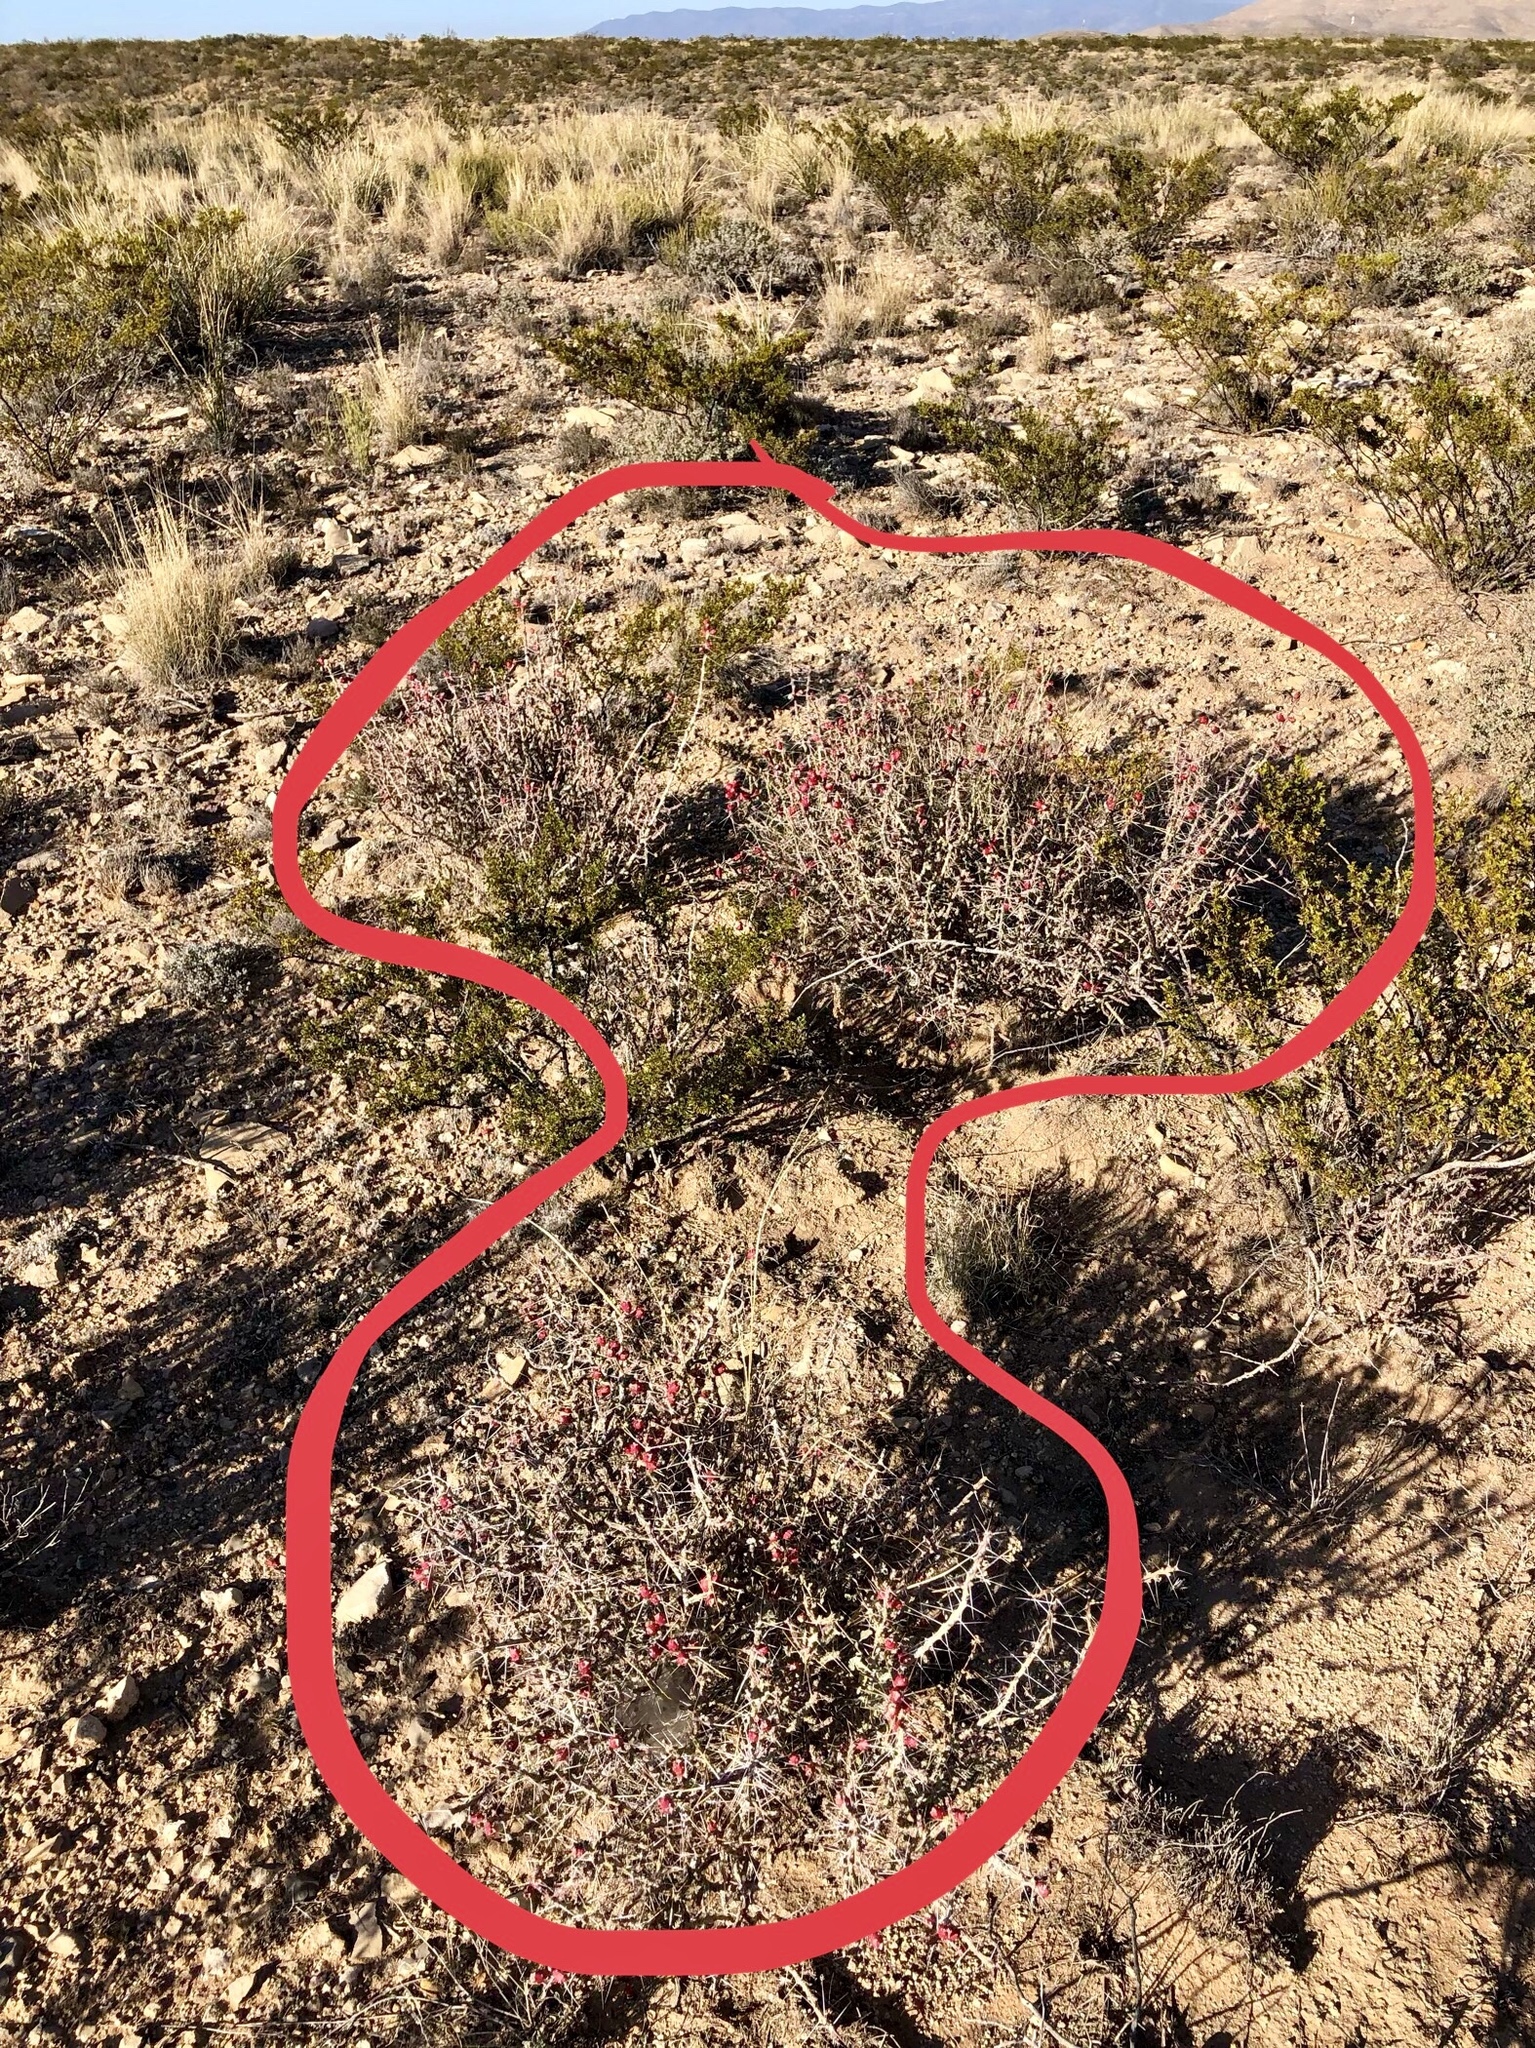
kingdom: Plantae
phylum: Tracheophyta
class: Magnoliopsida
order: Caryophyllales
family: Cactaceae
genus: Cylindropuntia
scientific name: Cylindropuntia leptocaulis
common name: Christmas cactus
